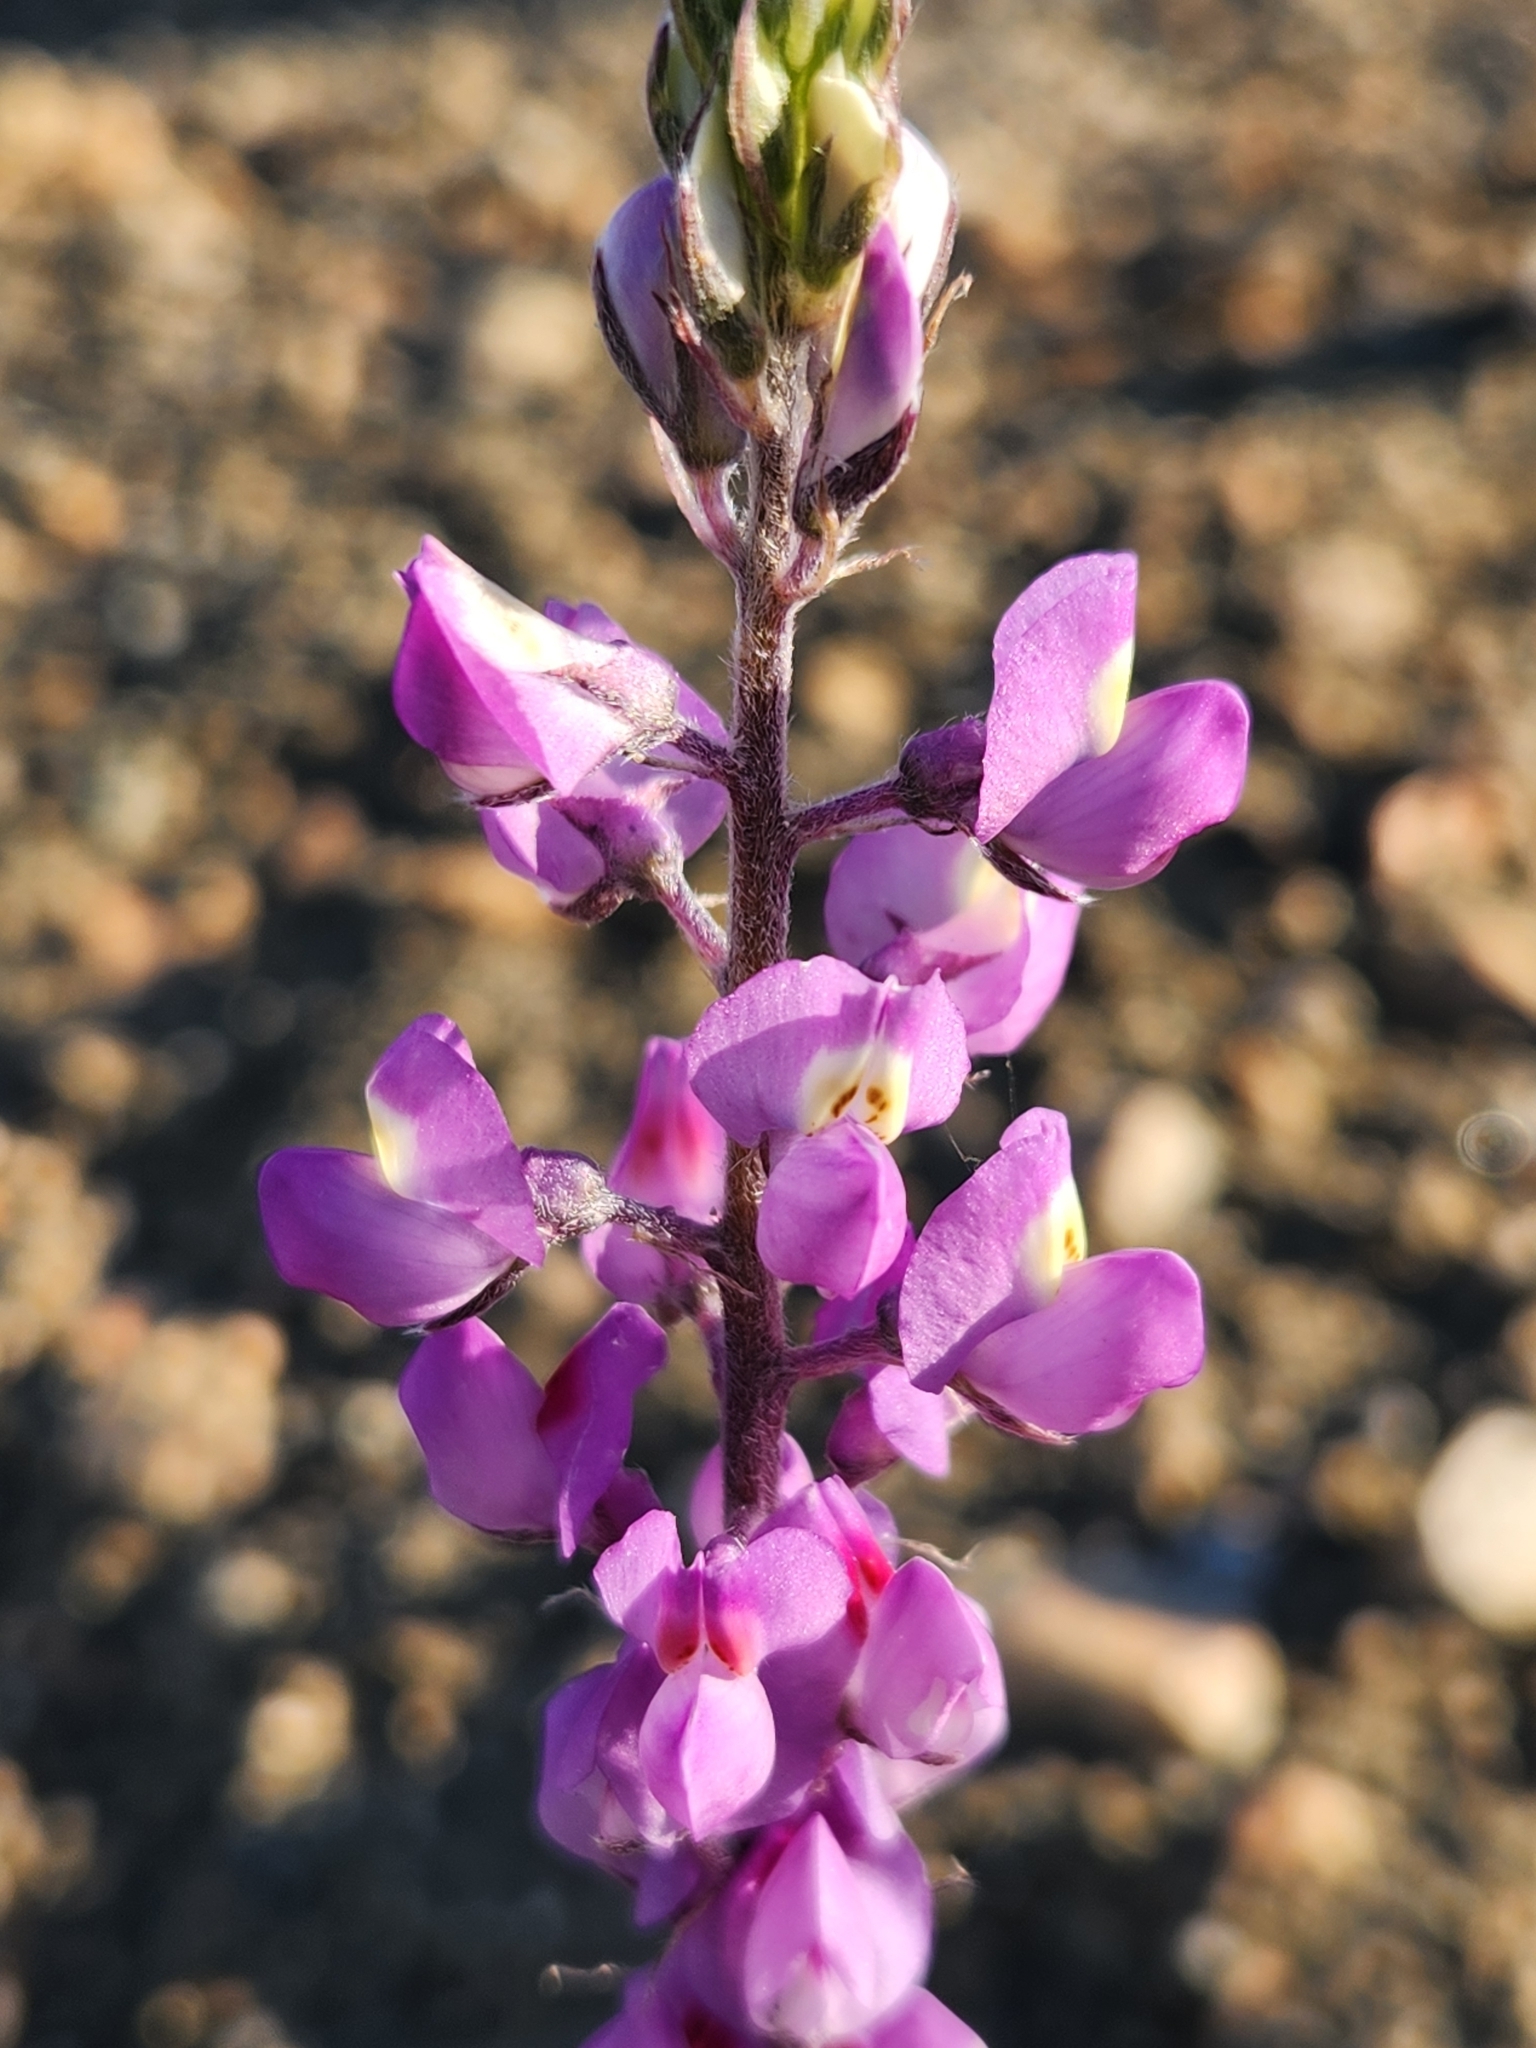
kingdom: Plantae
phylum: Tracheophyta
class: Magnoliopsida
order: Fabales
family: Fabaceae
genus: Lupinus
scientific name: Lupinus arizonicus
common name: Arizona lupine
